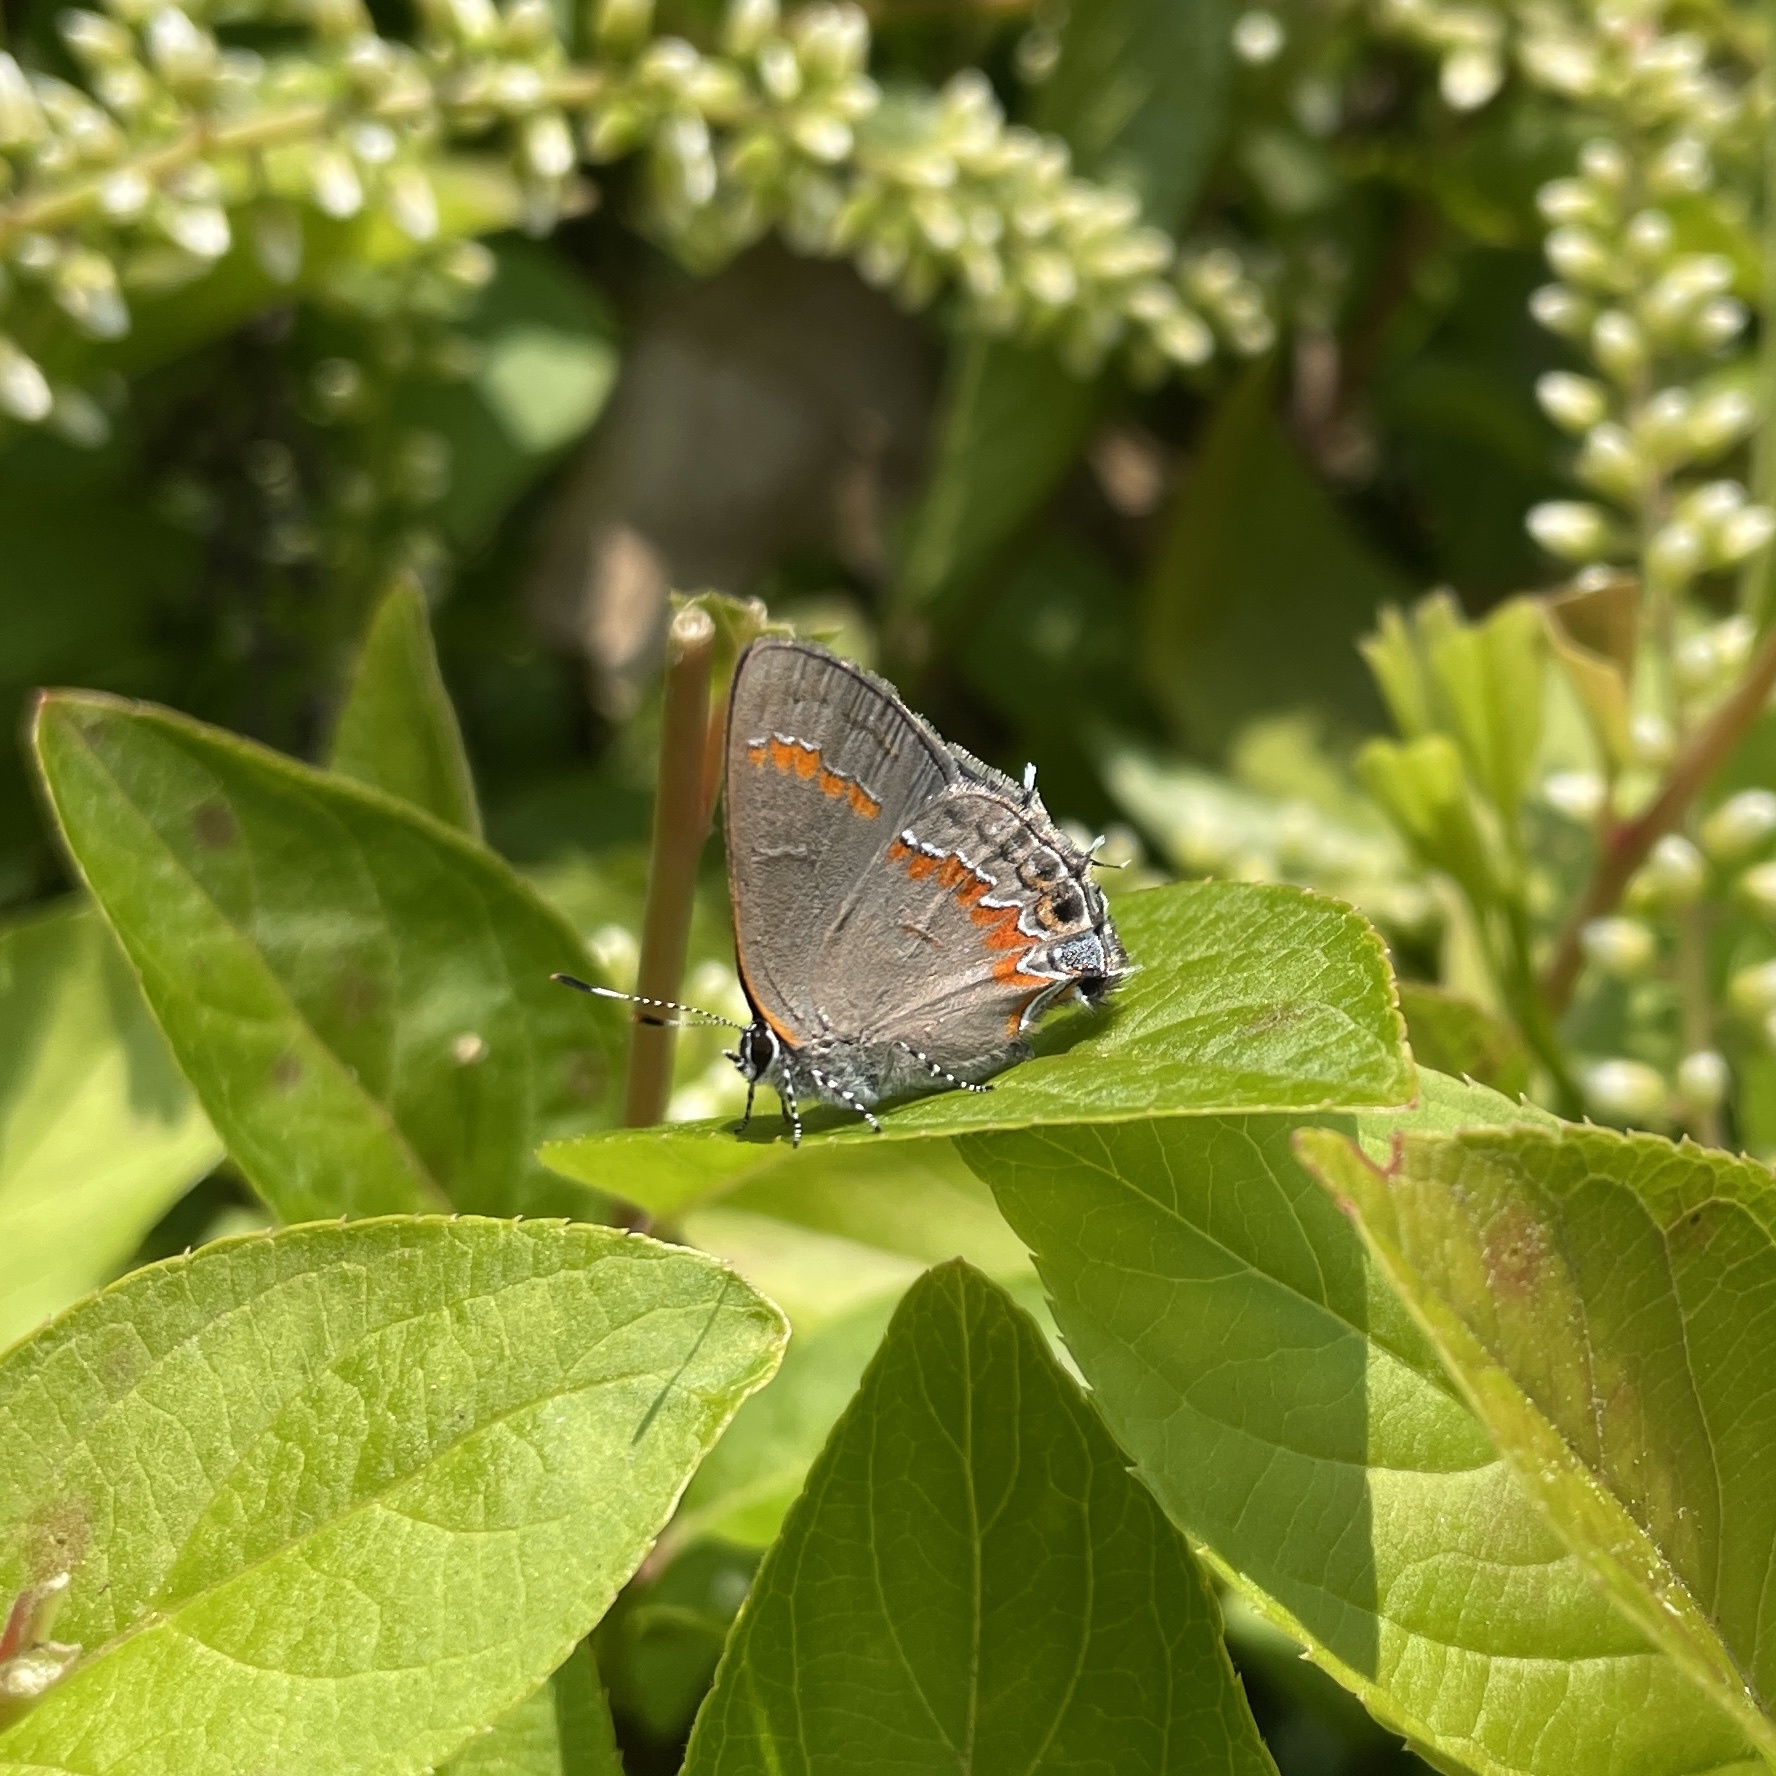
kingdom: Animalia
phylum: Arthropoda
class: Insecta
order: Lepidoptera
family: Lycaenidae
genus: Calycopis
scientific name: Calycopis cecrops
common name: Red-banded hairstreak
